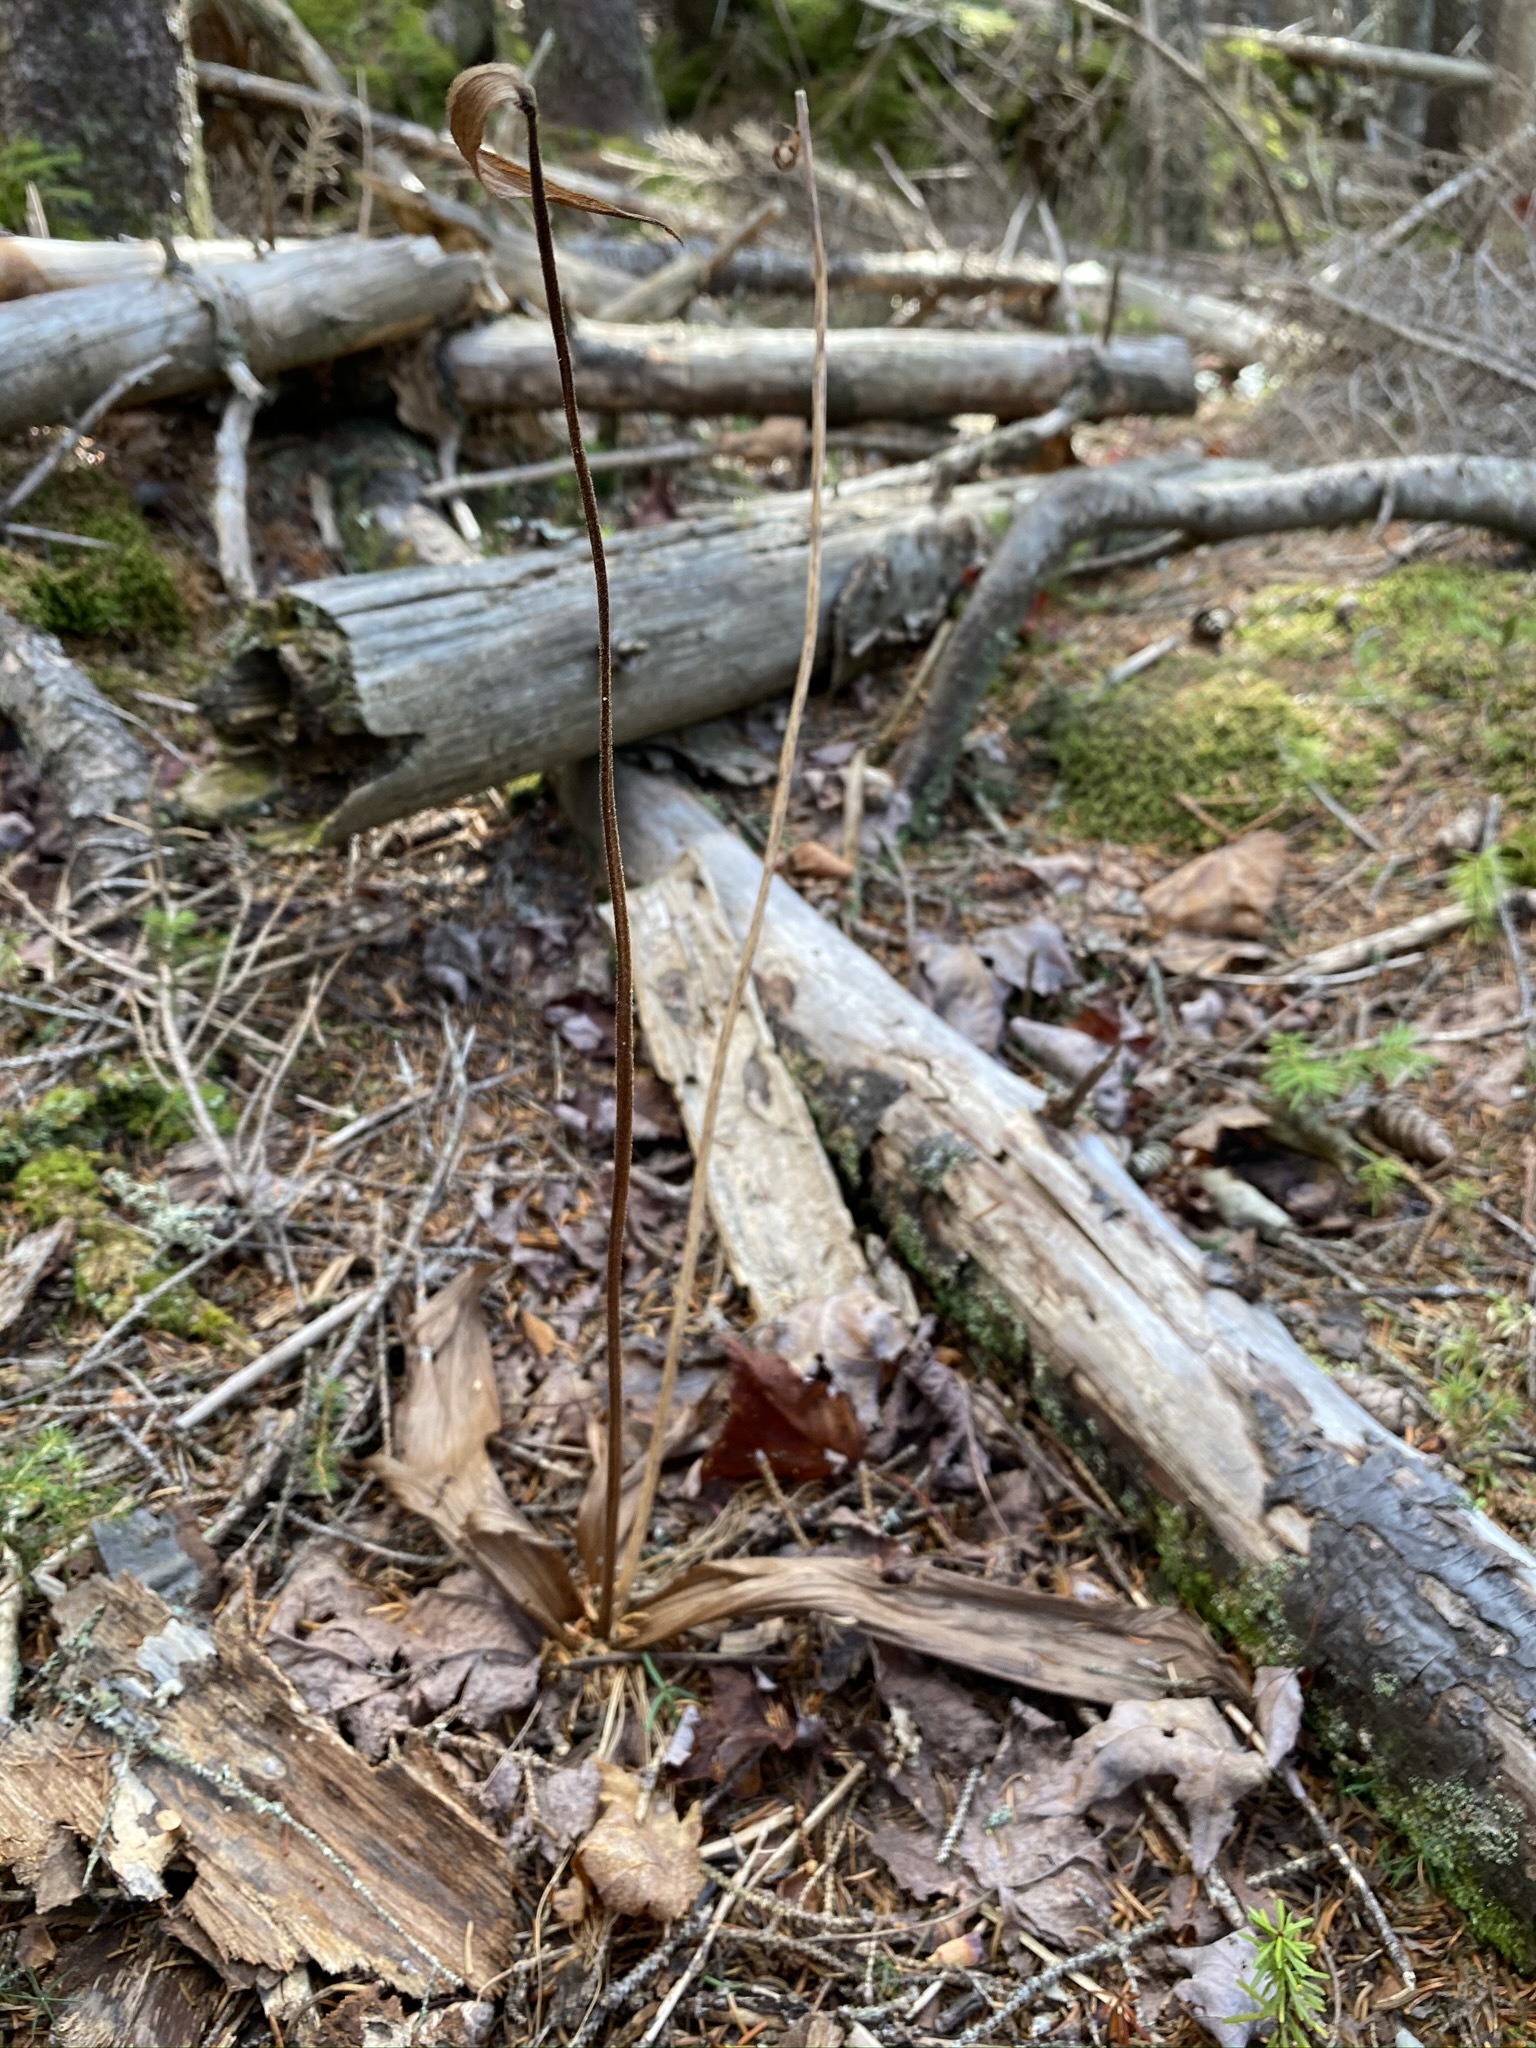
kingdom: Plantae
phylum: Tracheophyta
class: Liliopsida
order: Asparagales
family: Orchidaceae
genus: Cypripedium
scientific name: Cypripedium acaule
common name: Pink lady's-slipper
